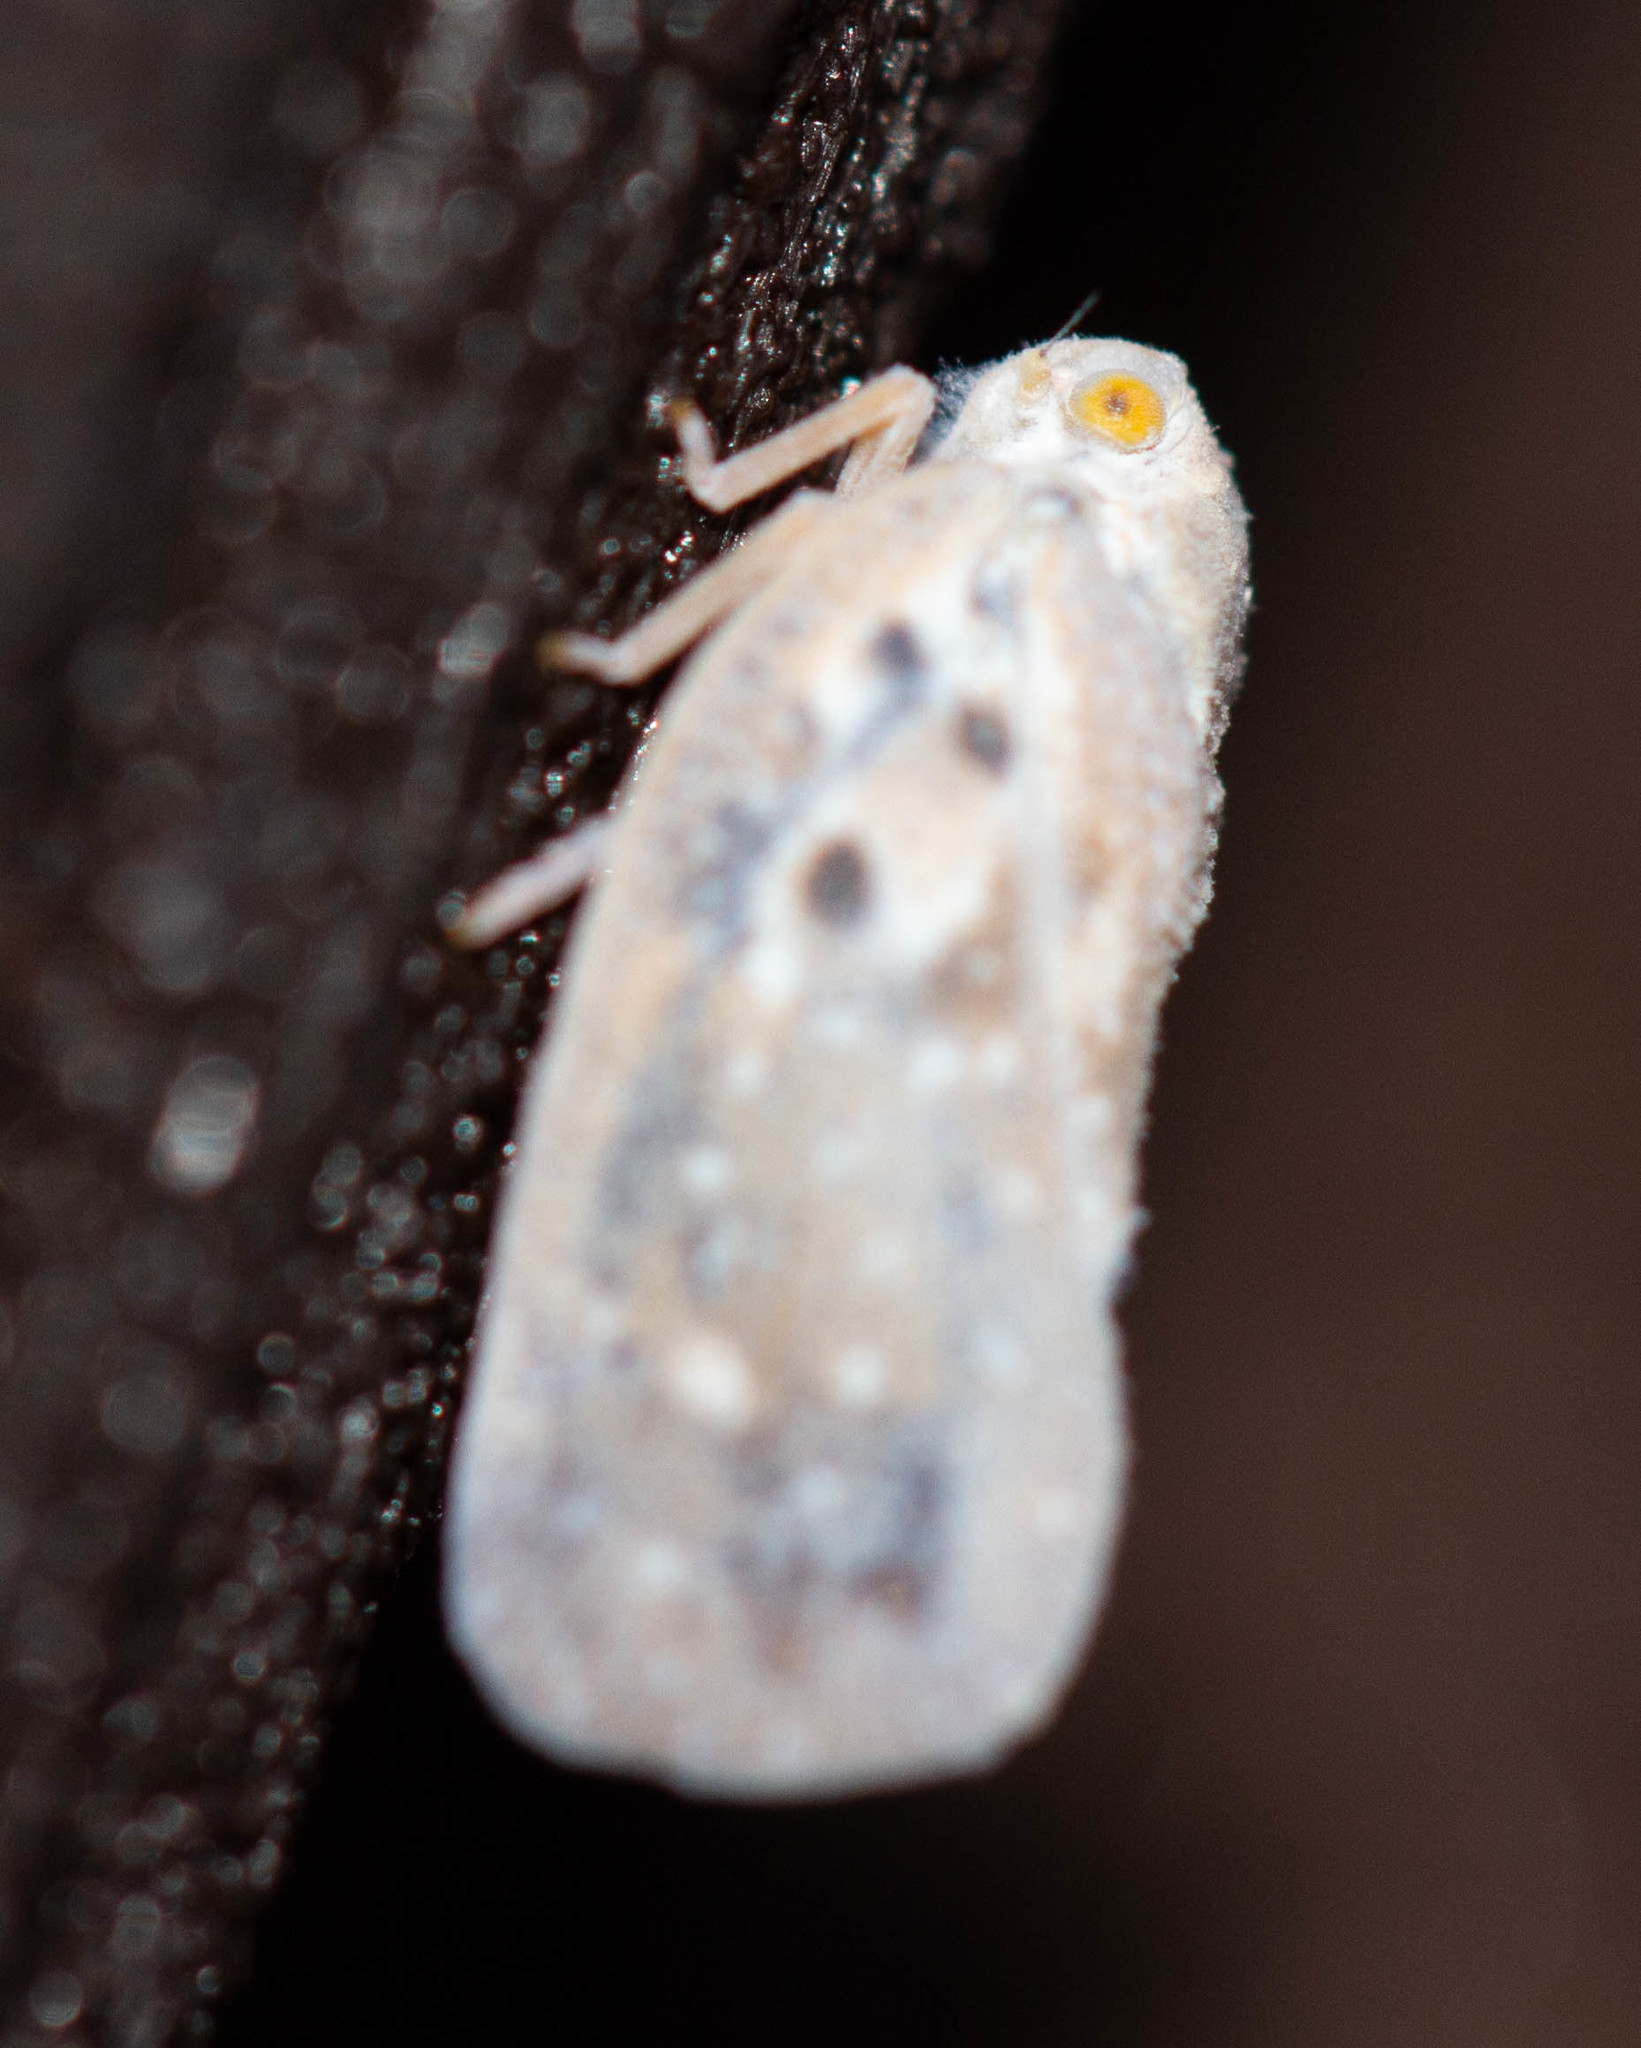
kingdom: Animalia
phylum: Arthropoda
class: Insecta
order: Hemiptera
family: Flatidae
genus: Metcalfa
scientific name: Metcalfa pruinosa
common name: Citrus flatid planthopper
